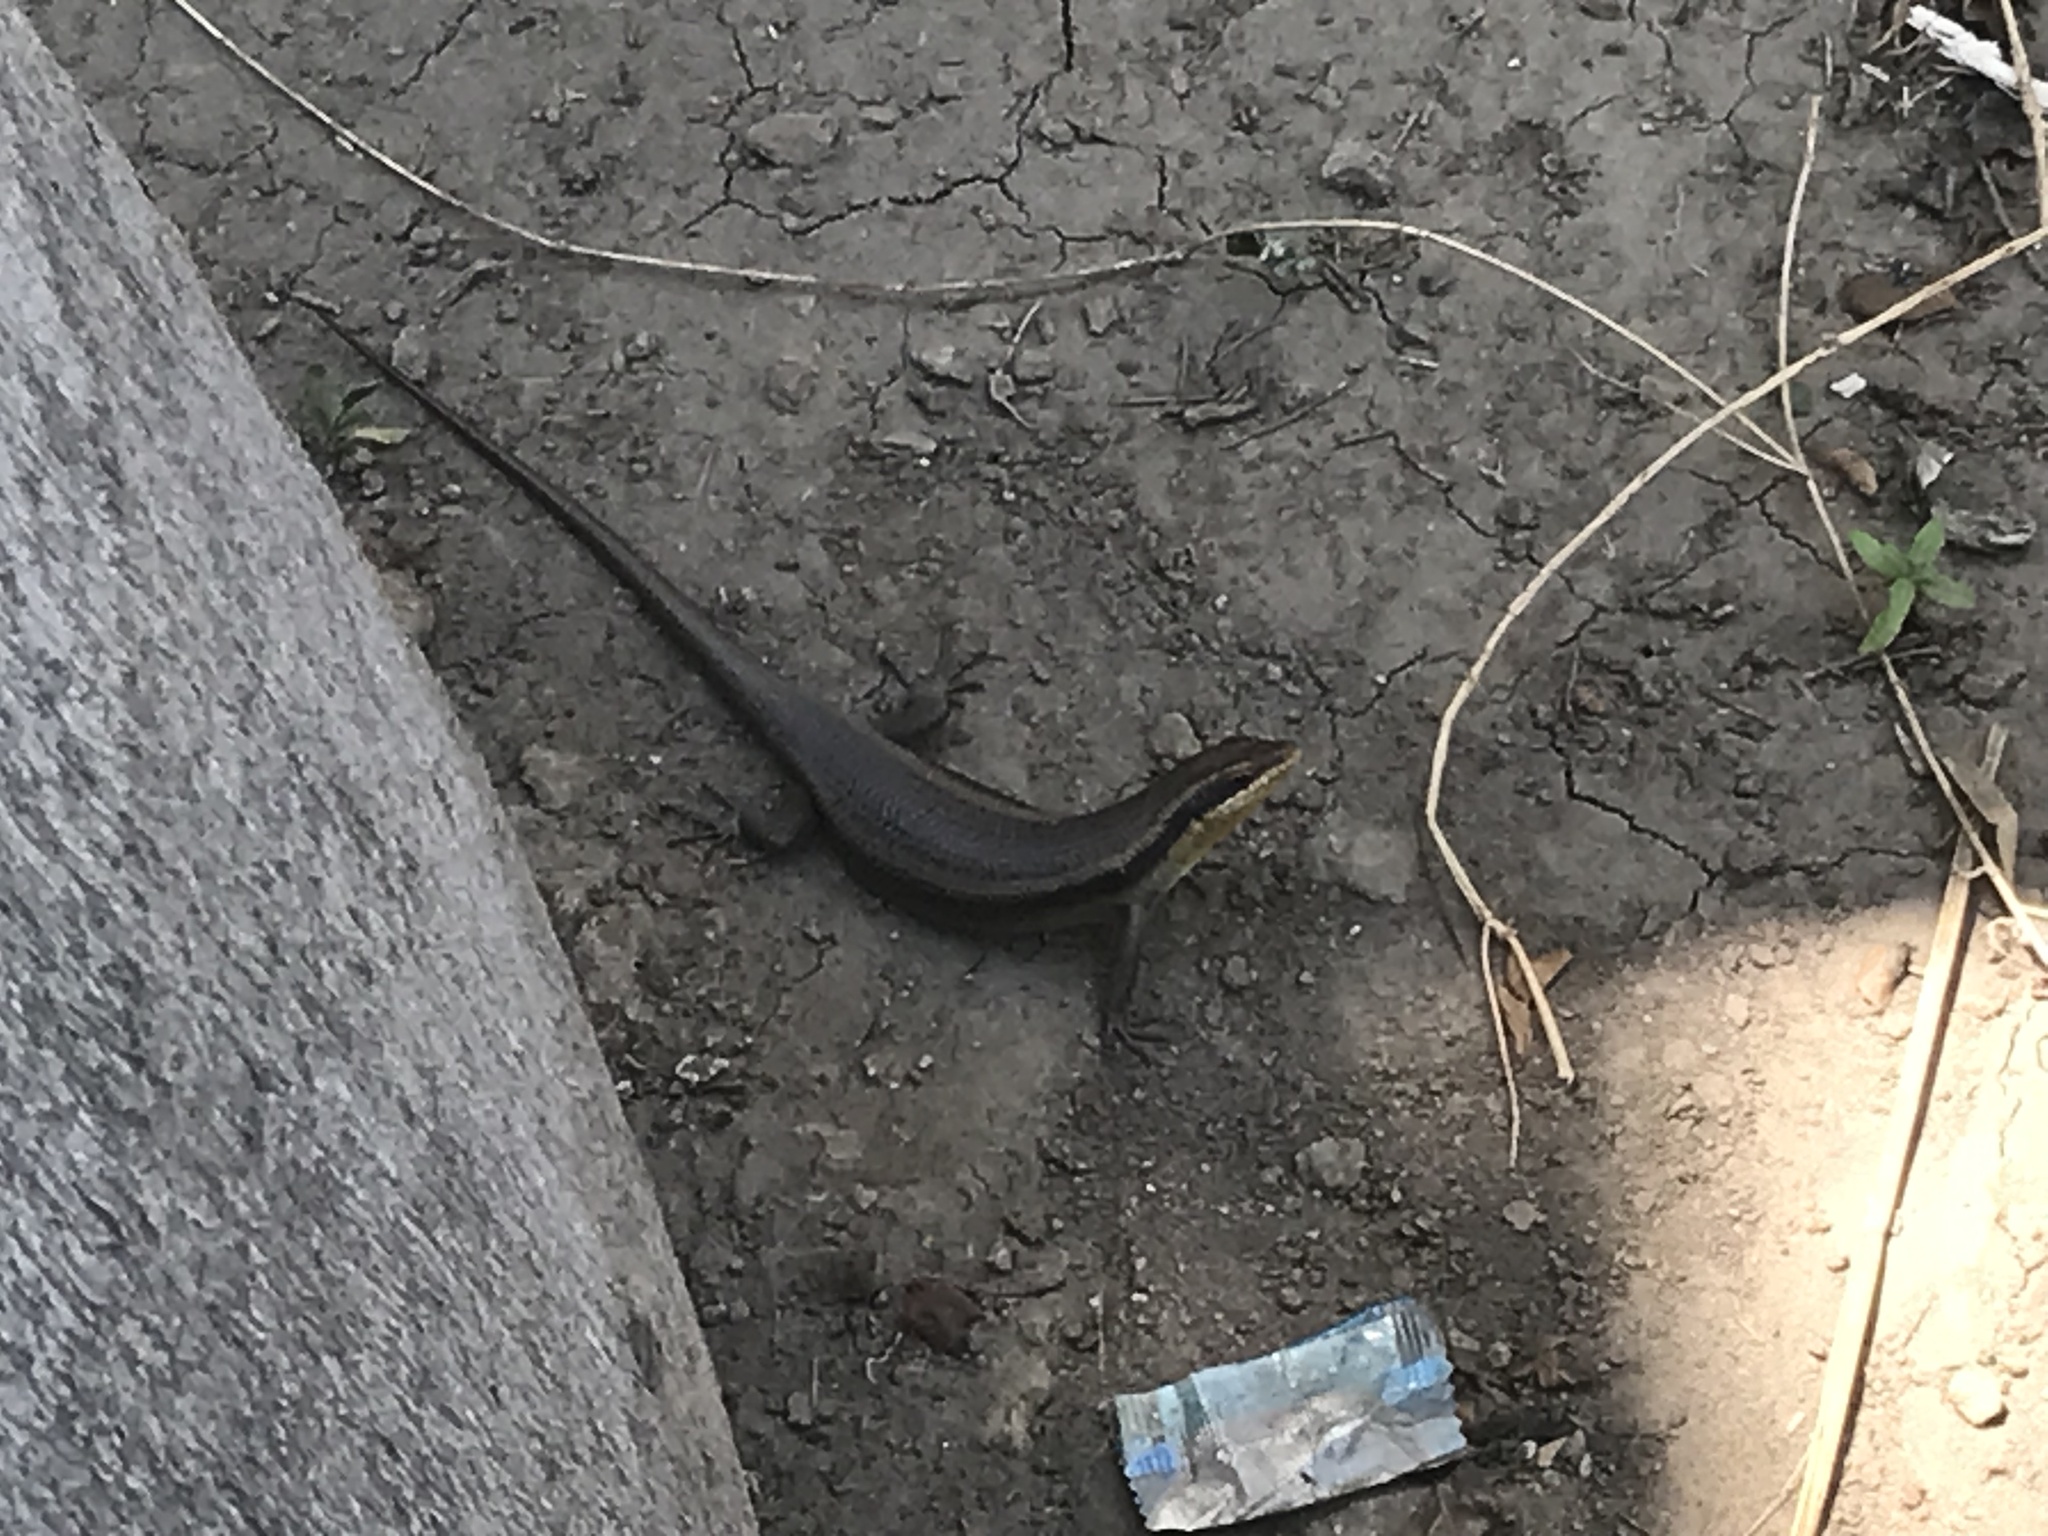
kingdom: Animalia
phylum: Chordata
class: Squamata
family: Scincidae
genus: Trachylepis
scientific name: Trachylepis wahlbergii
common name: Wahlberg’s striped skink
